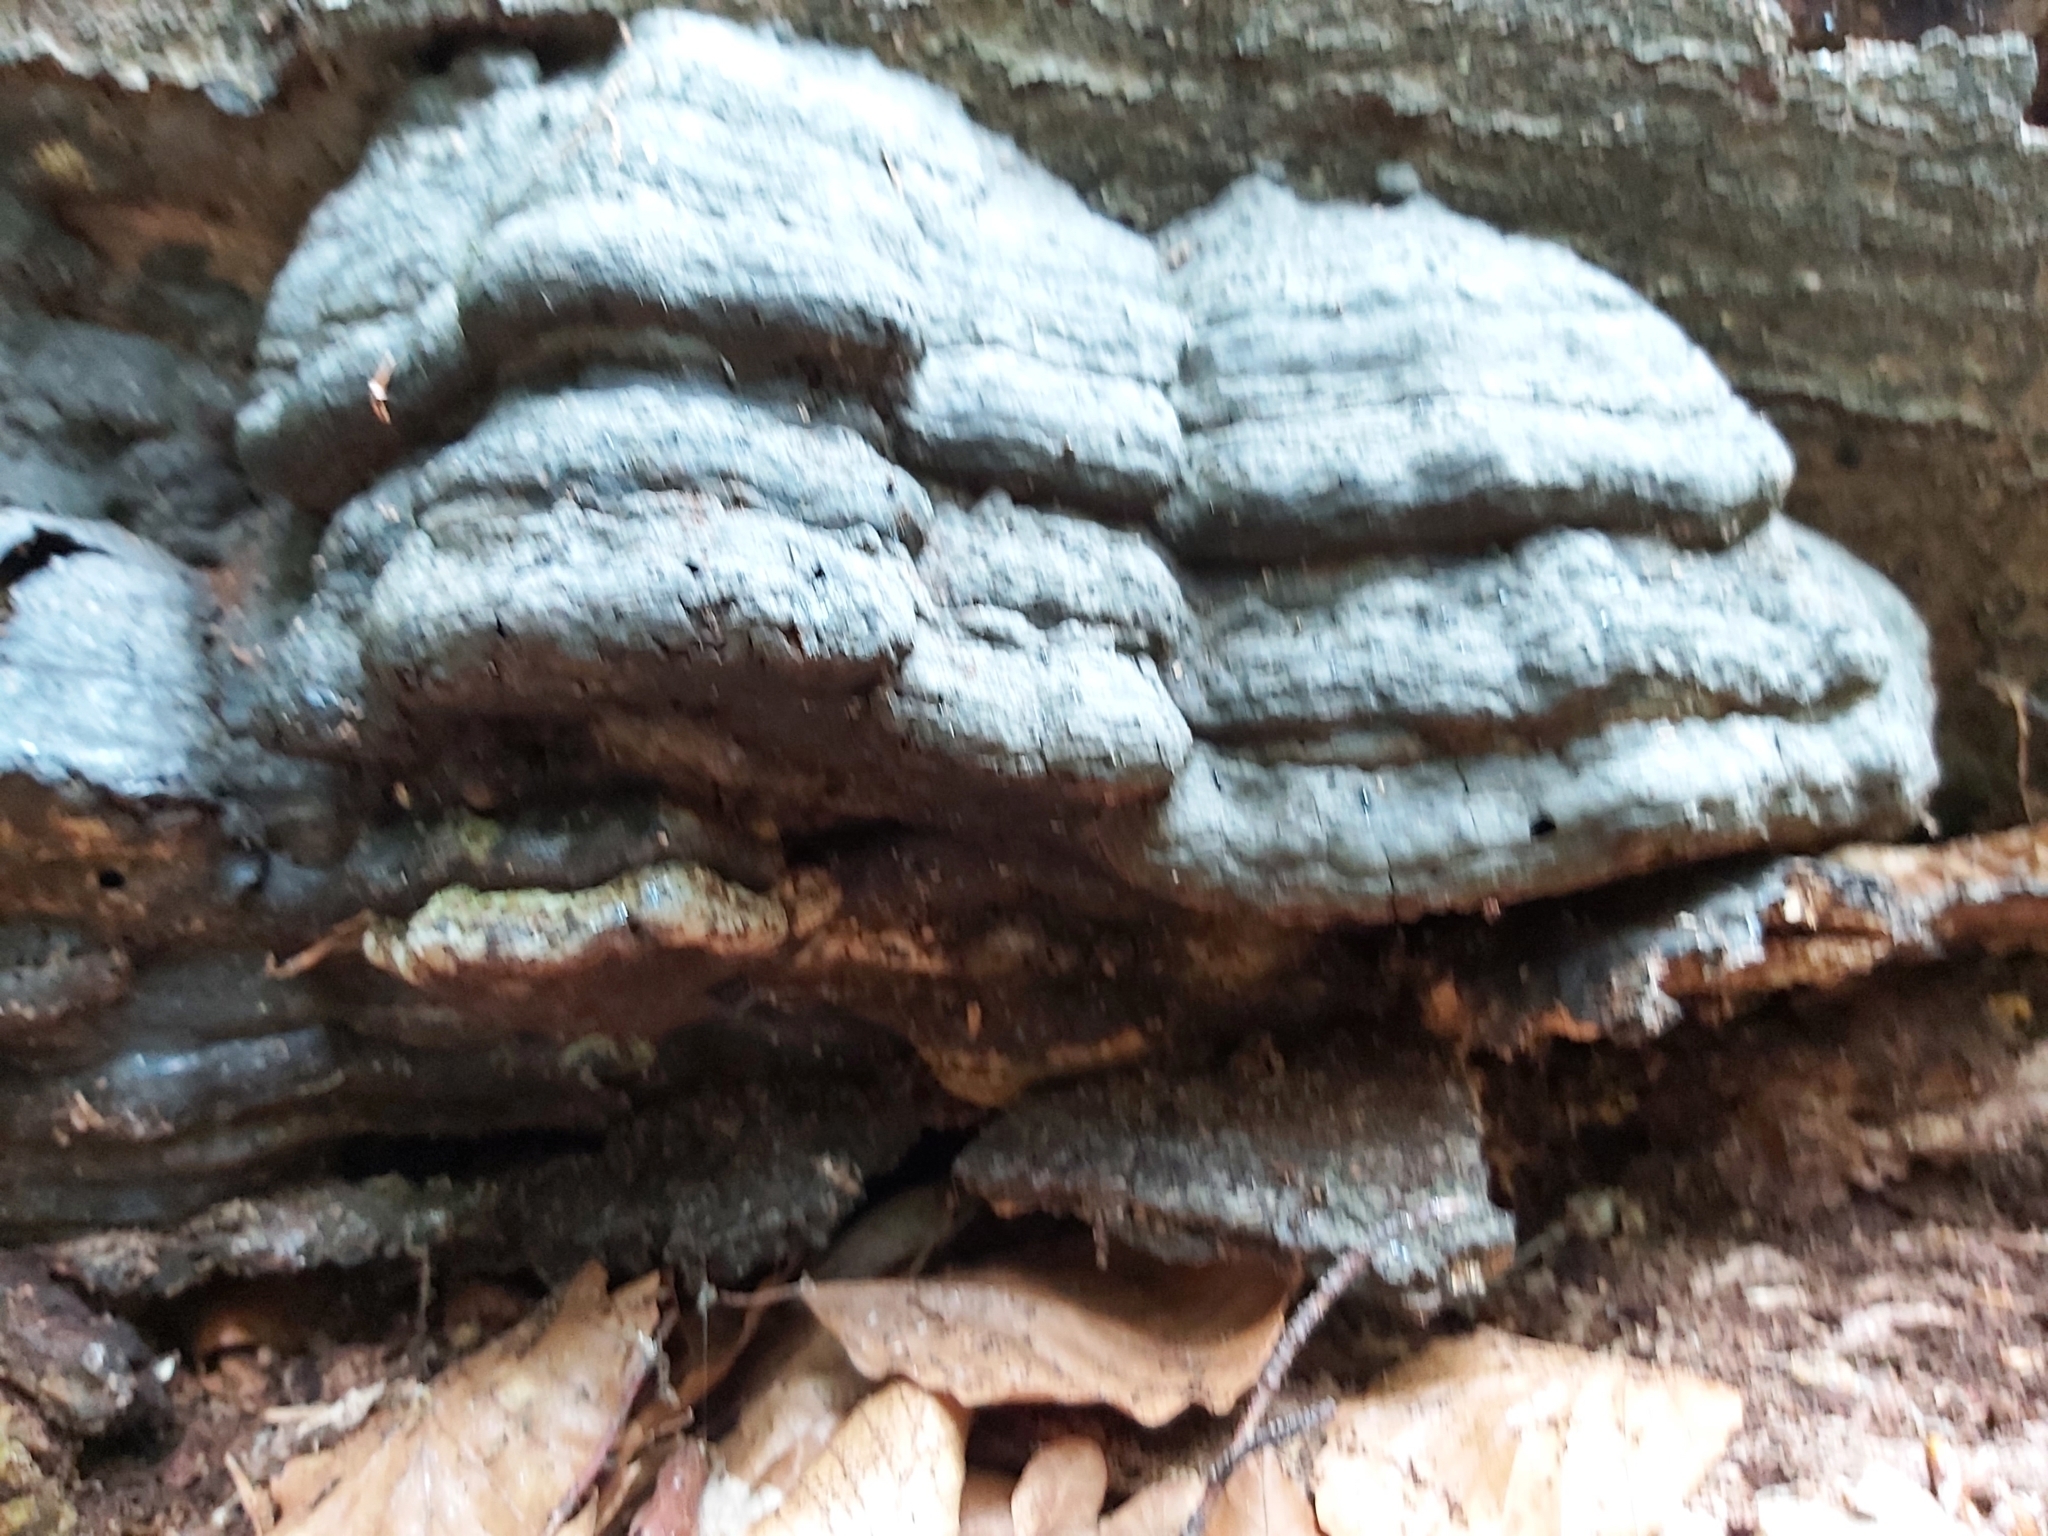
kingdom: Fungi
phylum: Basidiomycota
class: Agaricomycetes
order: Polyporales
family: Polyporaceae
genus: Fomes
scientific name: Fomes fomentarius
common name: Hoof fungus
